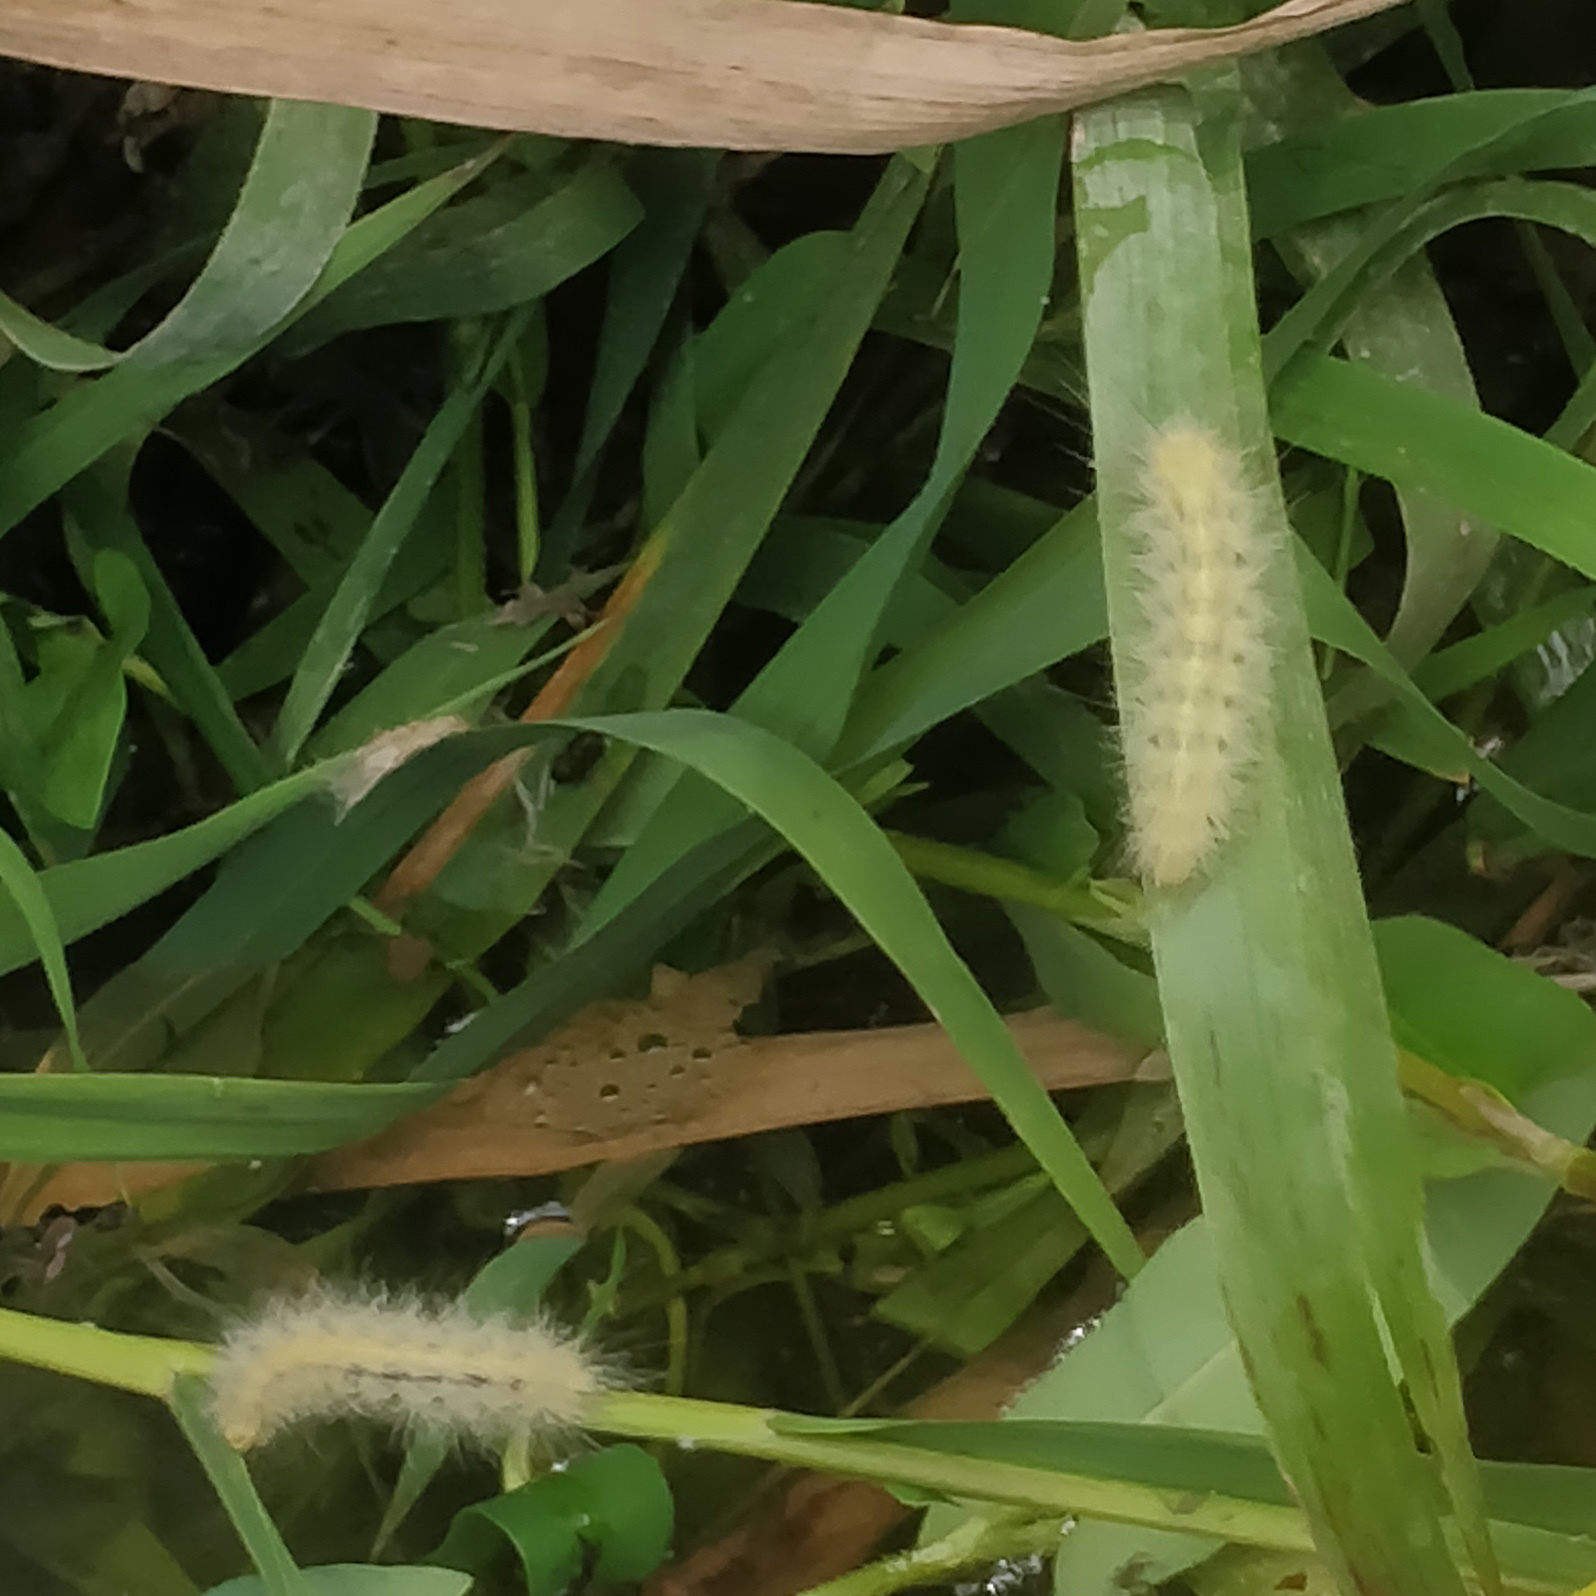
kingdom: Animalia
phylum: Arthropoda
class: Insecta
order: Lepidoptera
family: Erebidae
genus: Spilosoma
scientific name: Spilosoma virginica
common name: Virginia tiger moth
